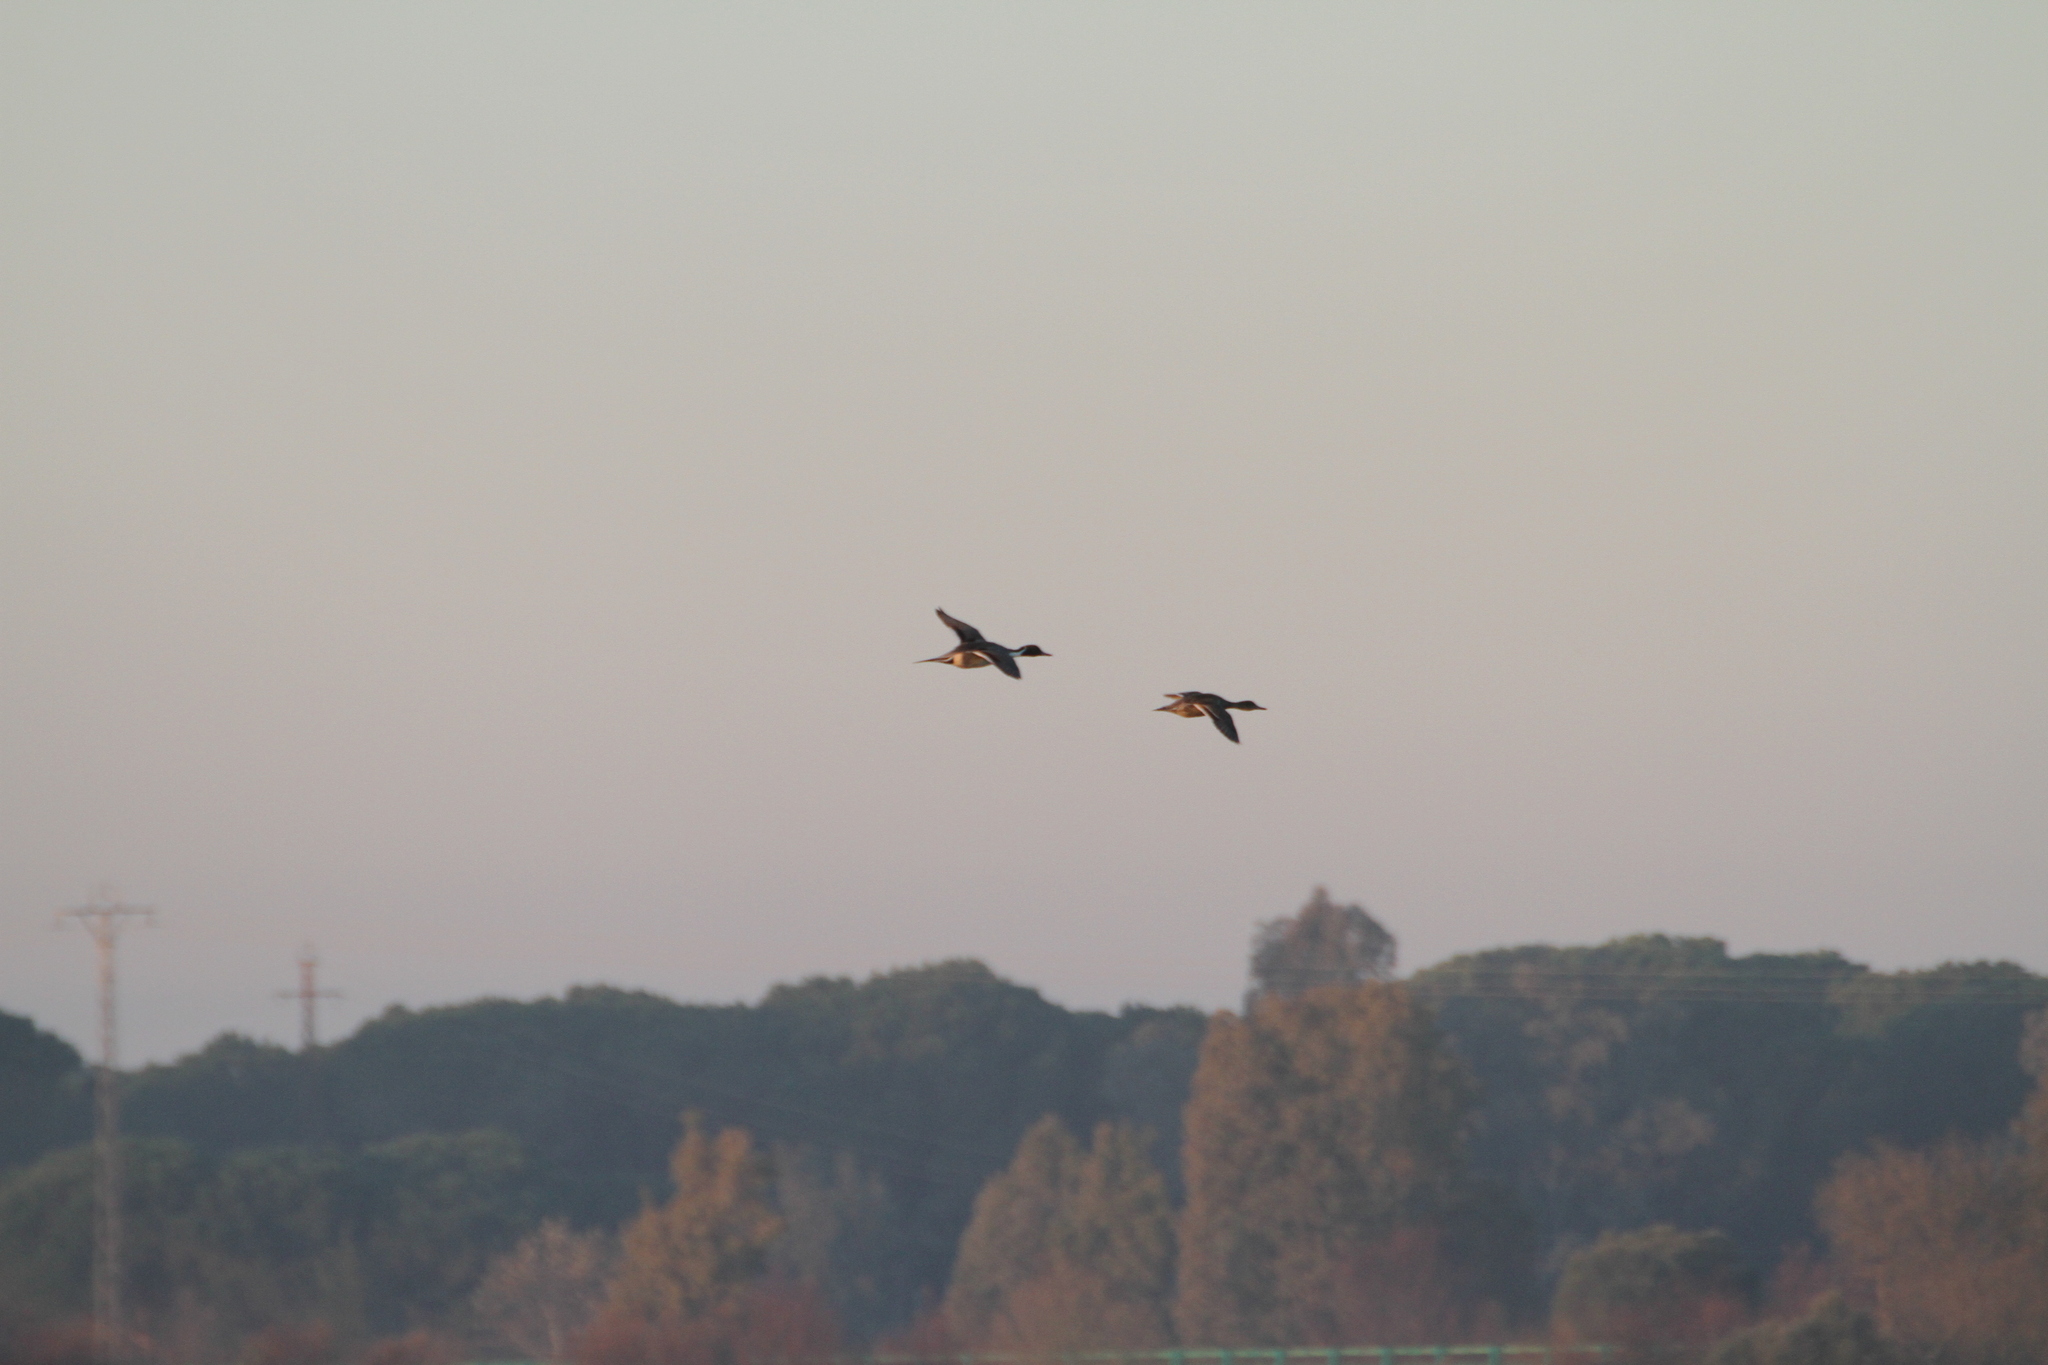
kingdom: Animalia
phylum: Chordata
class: Aves
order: Anseriformes
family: Anatidae
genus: Anas
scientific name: Anas acuta
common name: Northern pintail
